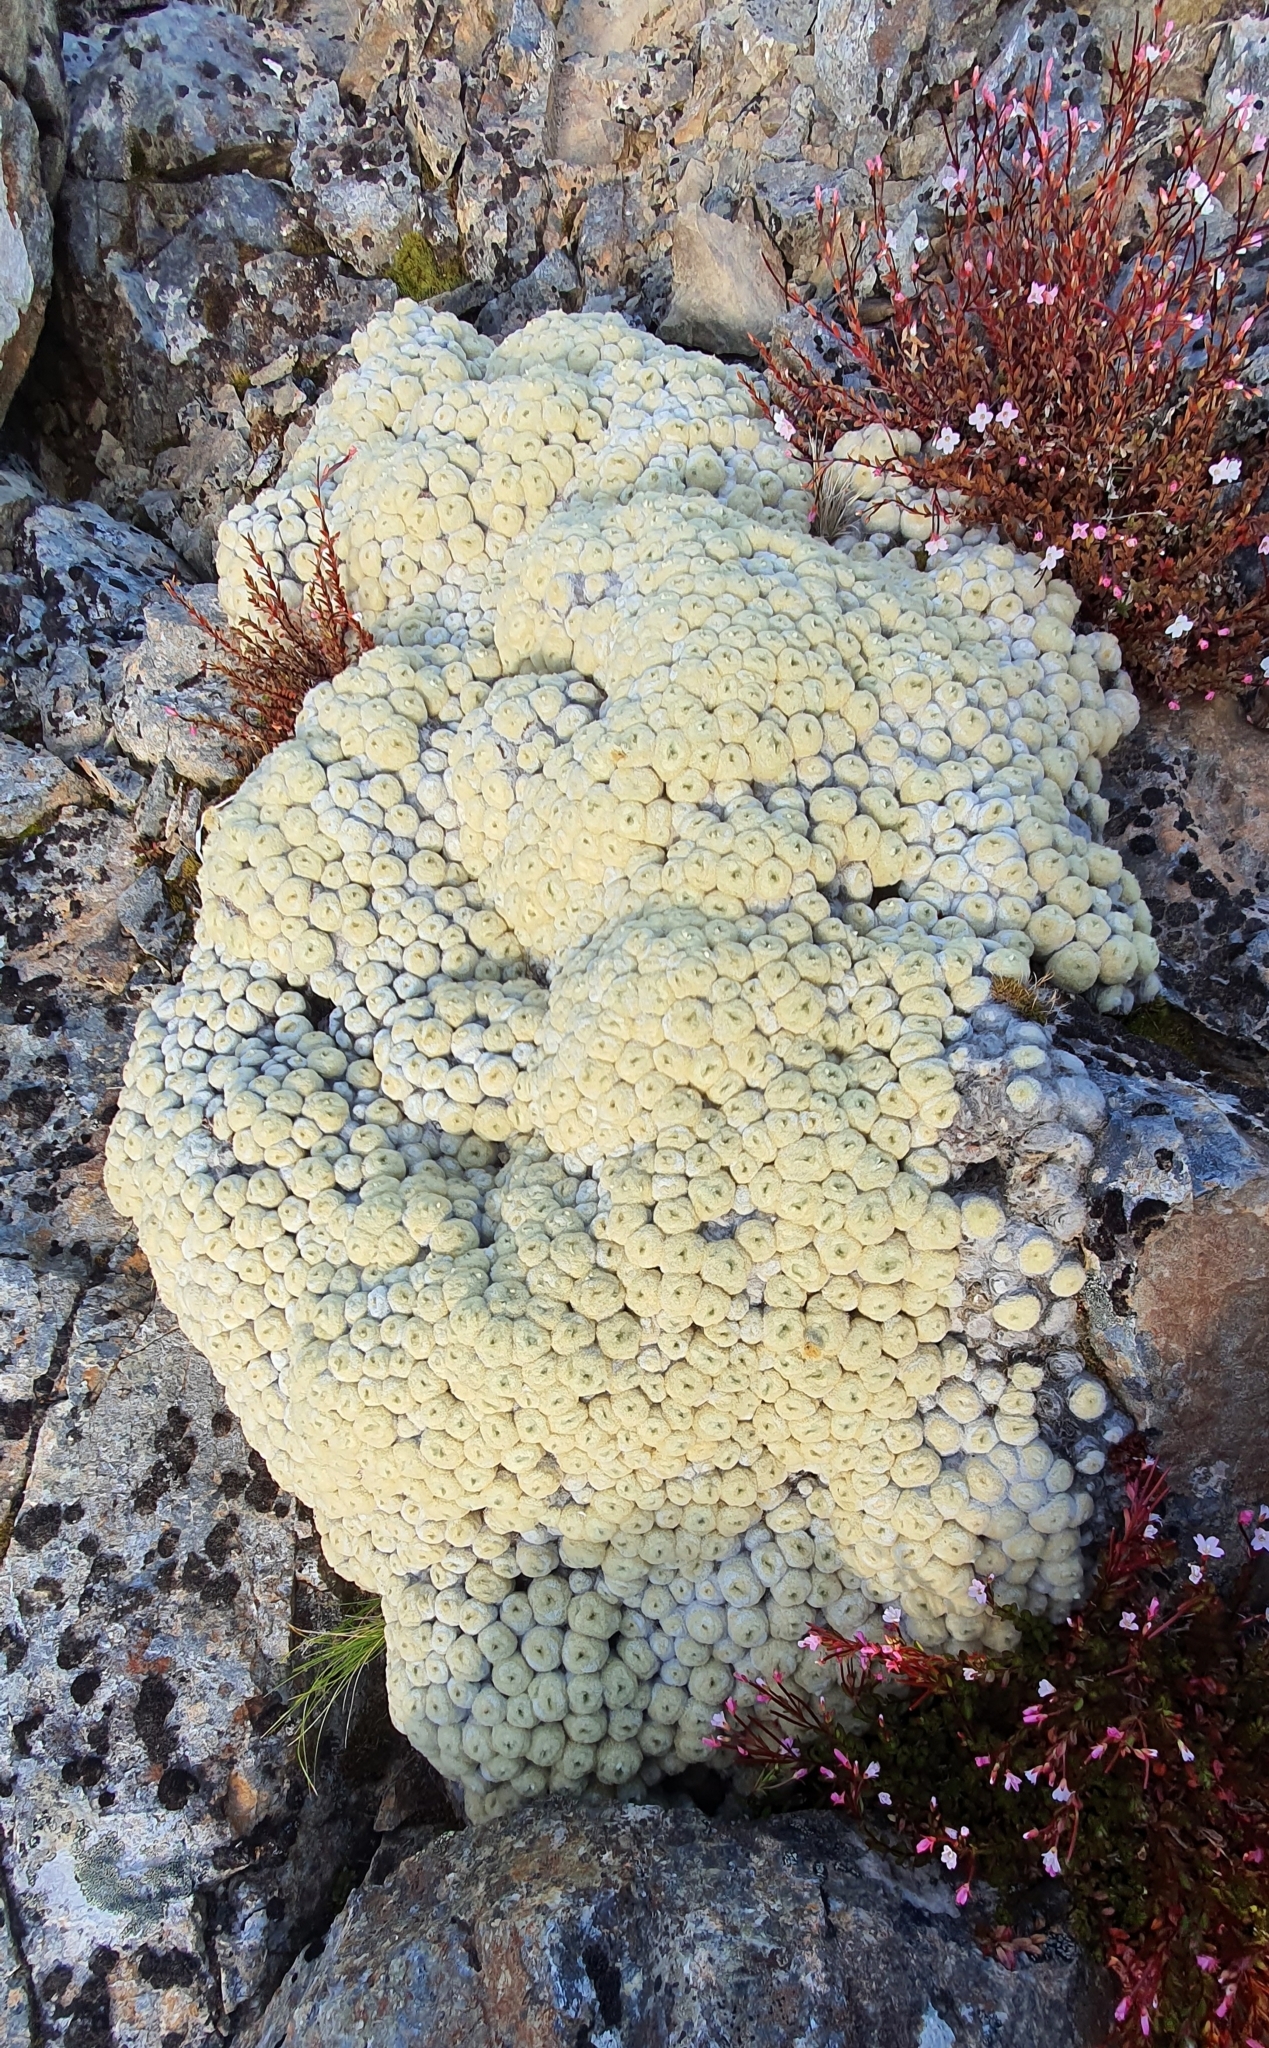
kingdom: Plantae
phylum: Tracheophyta
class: Magnoliopsida
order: Asterales
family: Asteraceae
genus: Haastia
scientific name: Haastia pulvinaris
